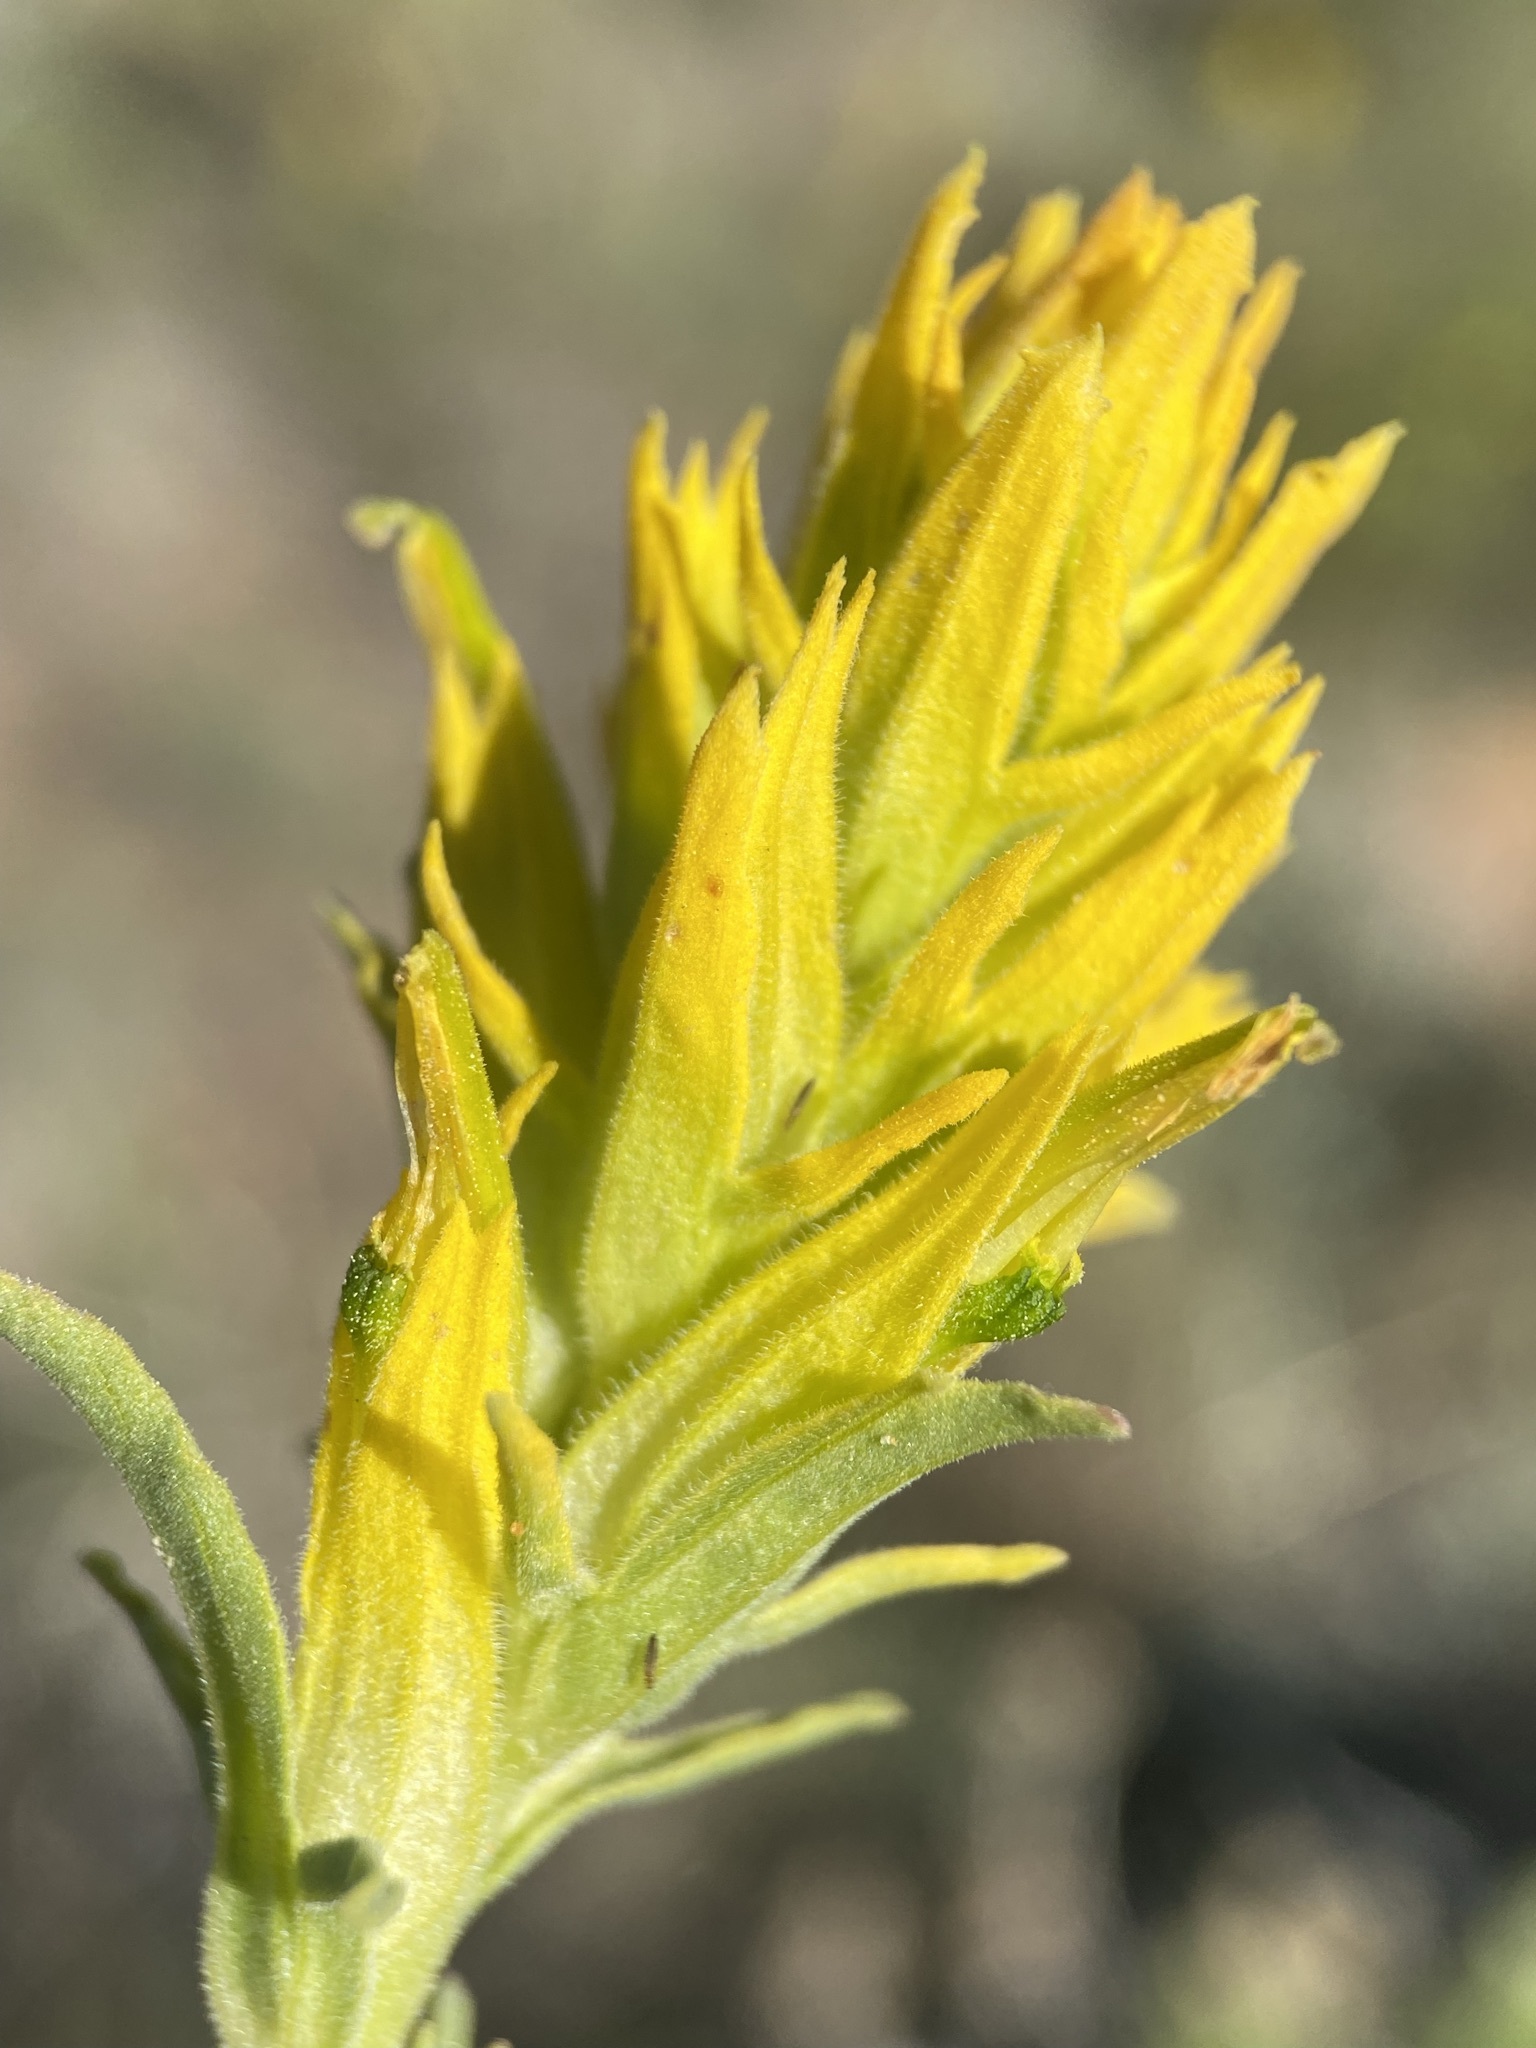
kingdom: Plantae
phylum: Tracheophyta
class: Magnoliopsida
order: Lamiales
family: Orobanchaceae
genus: Castilleja
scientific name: Castilleja flava
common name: Yellow paintbrush
